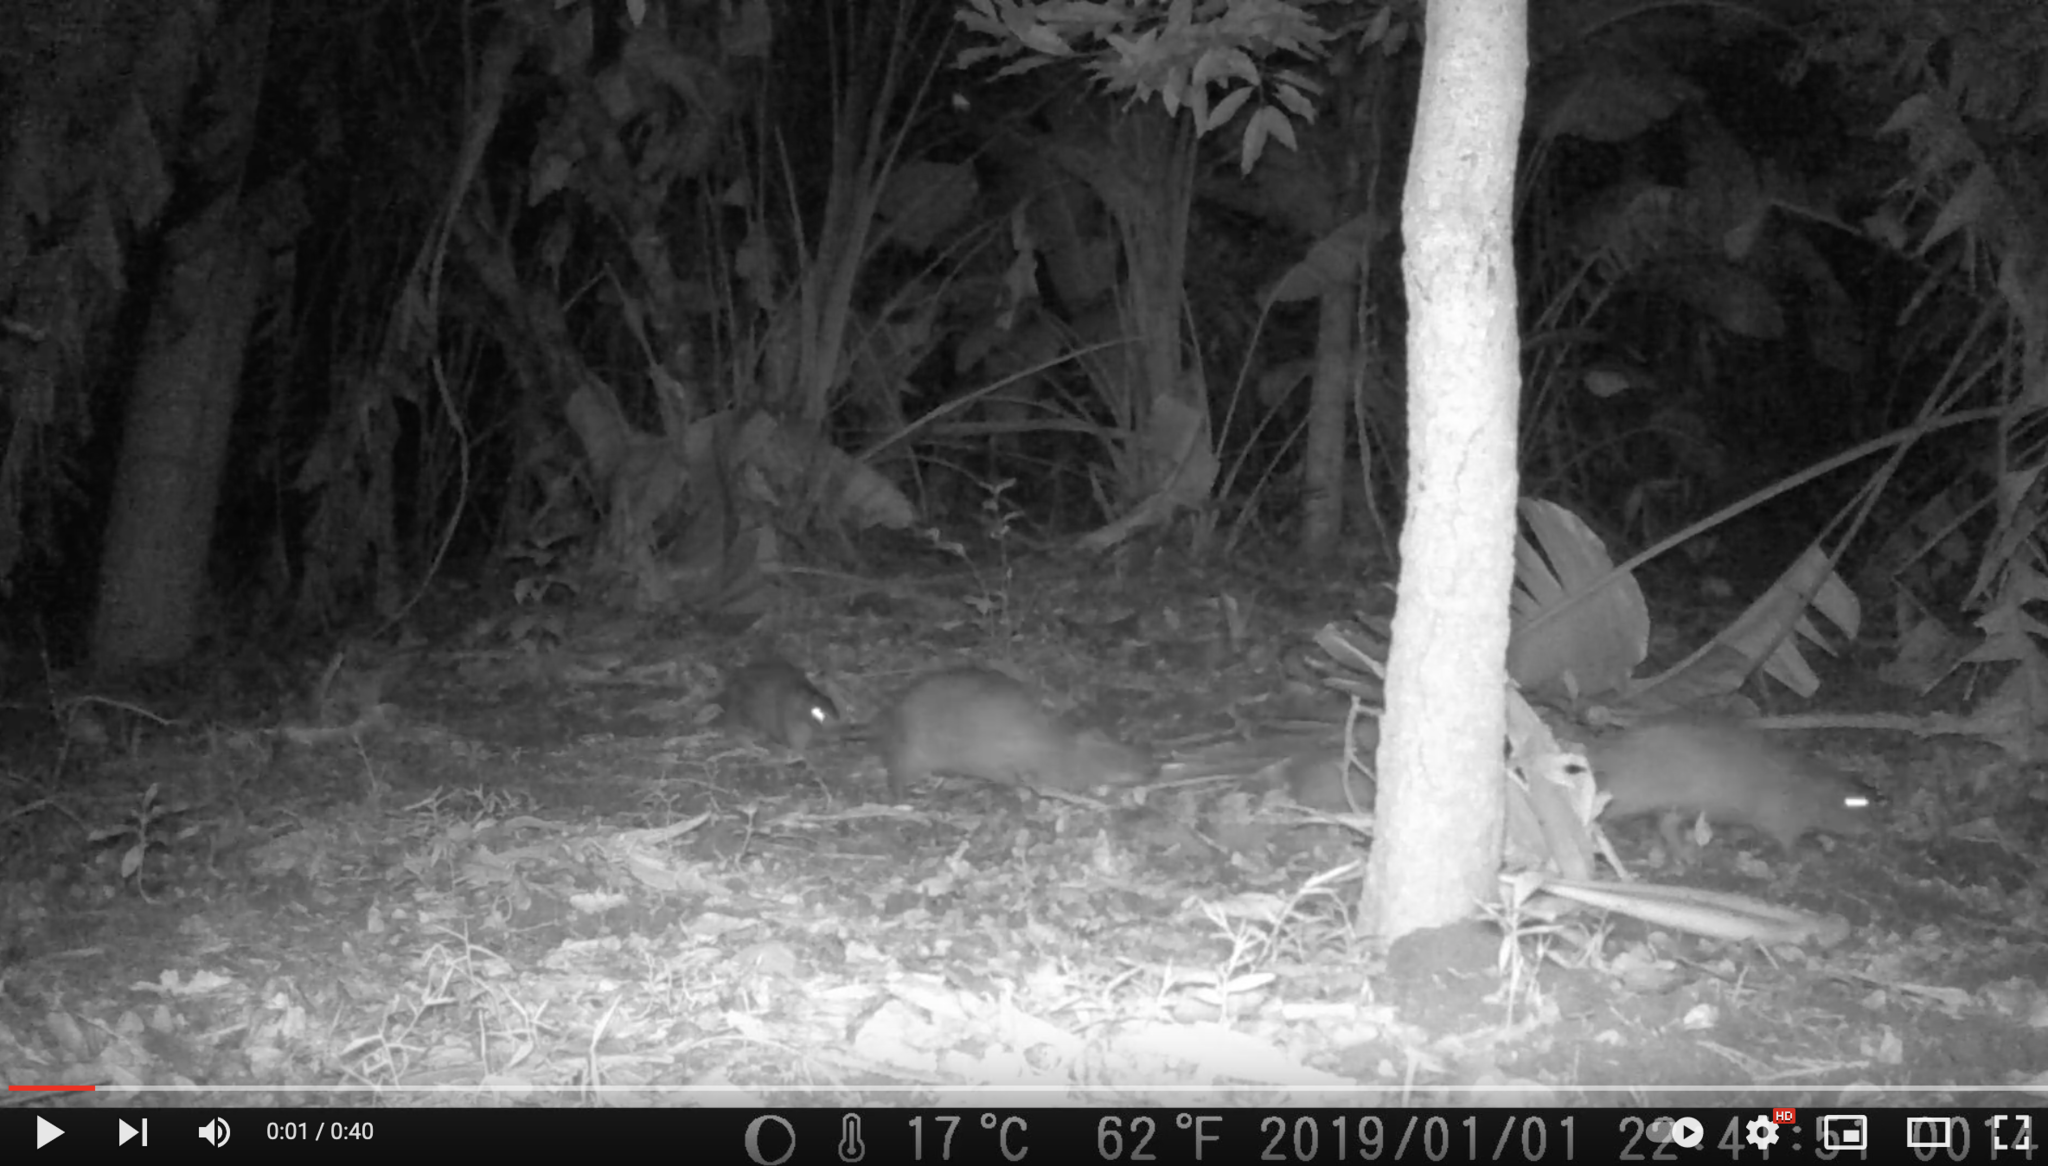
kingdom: Animalia
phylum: Chordata
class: Mammalia
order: Rodentia
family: Thryonomyidae
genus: Thryonomys
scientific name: Thryonomys swinderianus
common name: Greater cane rat
